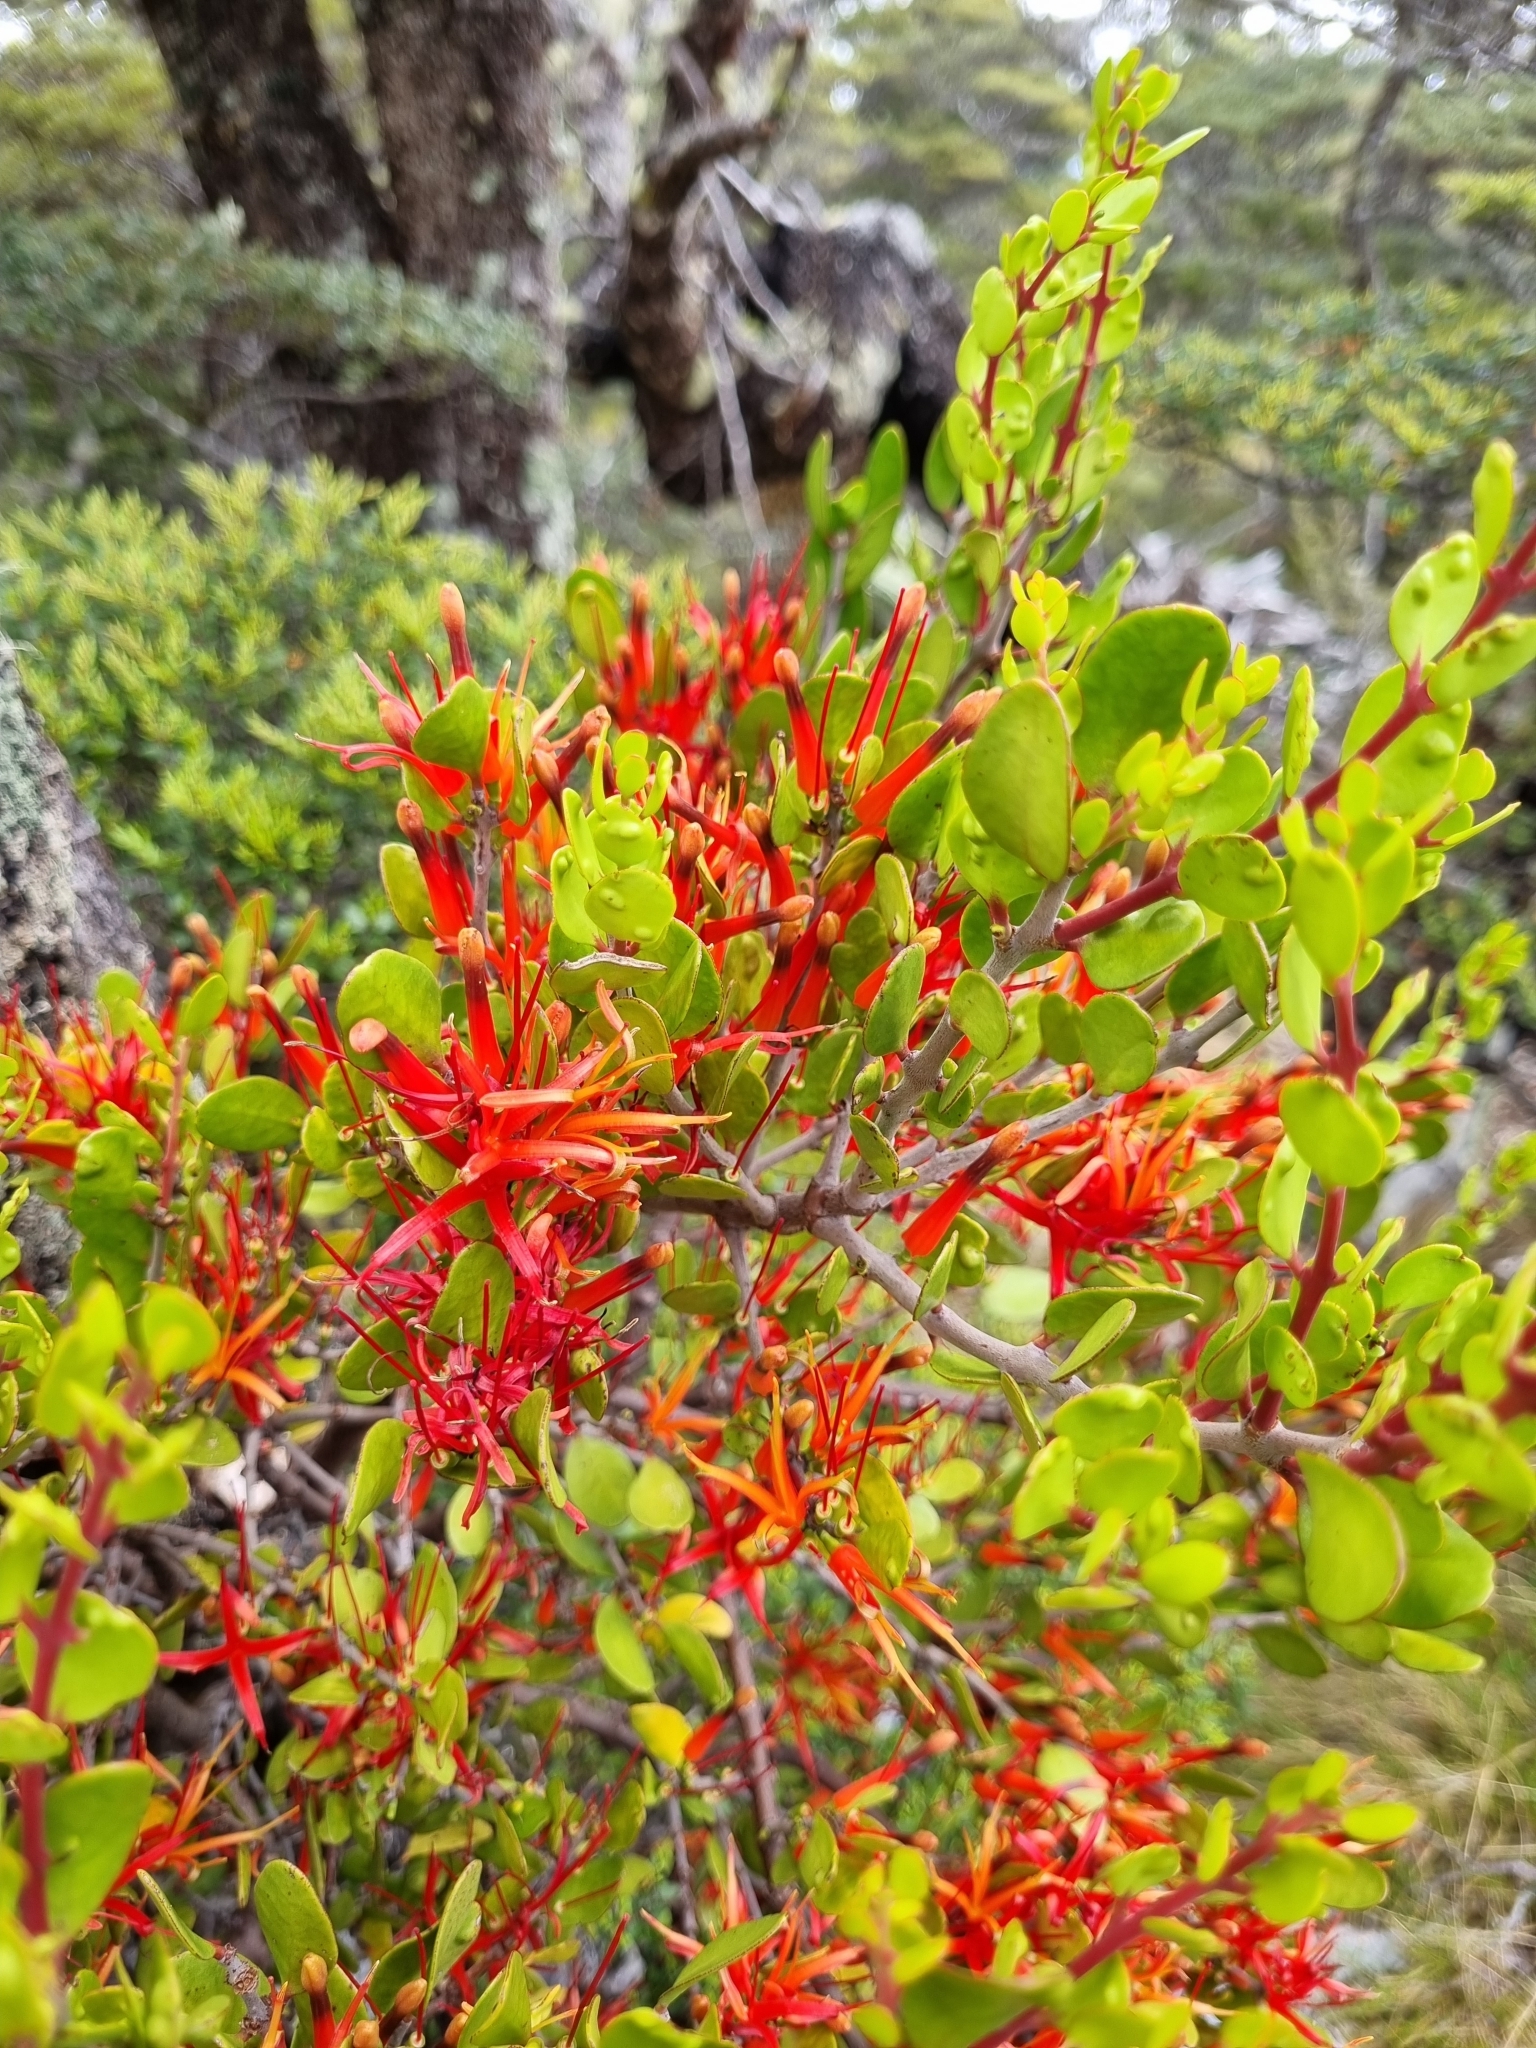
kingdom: Plantae
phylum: Tracheophyta
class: Magnoliopsida
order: Santalales
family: Loranthaceae
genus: Peraxilla
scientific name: Peraxilla tetrapetala
